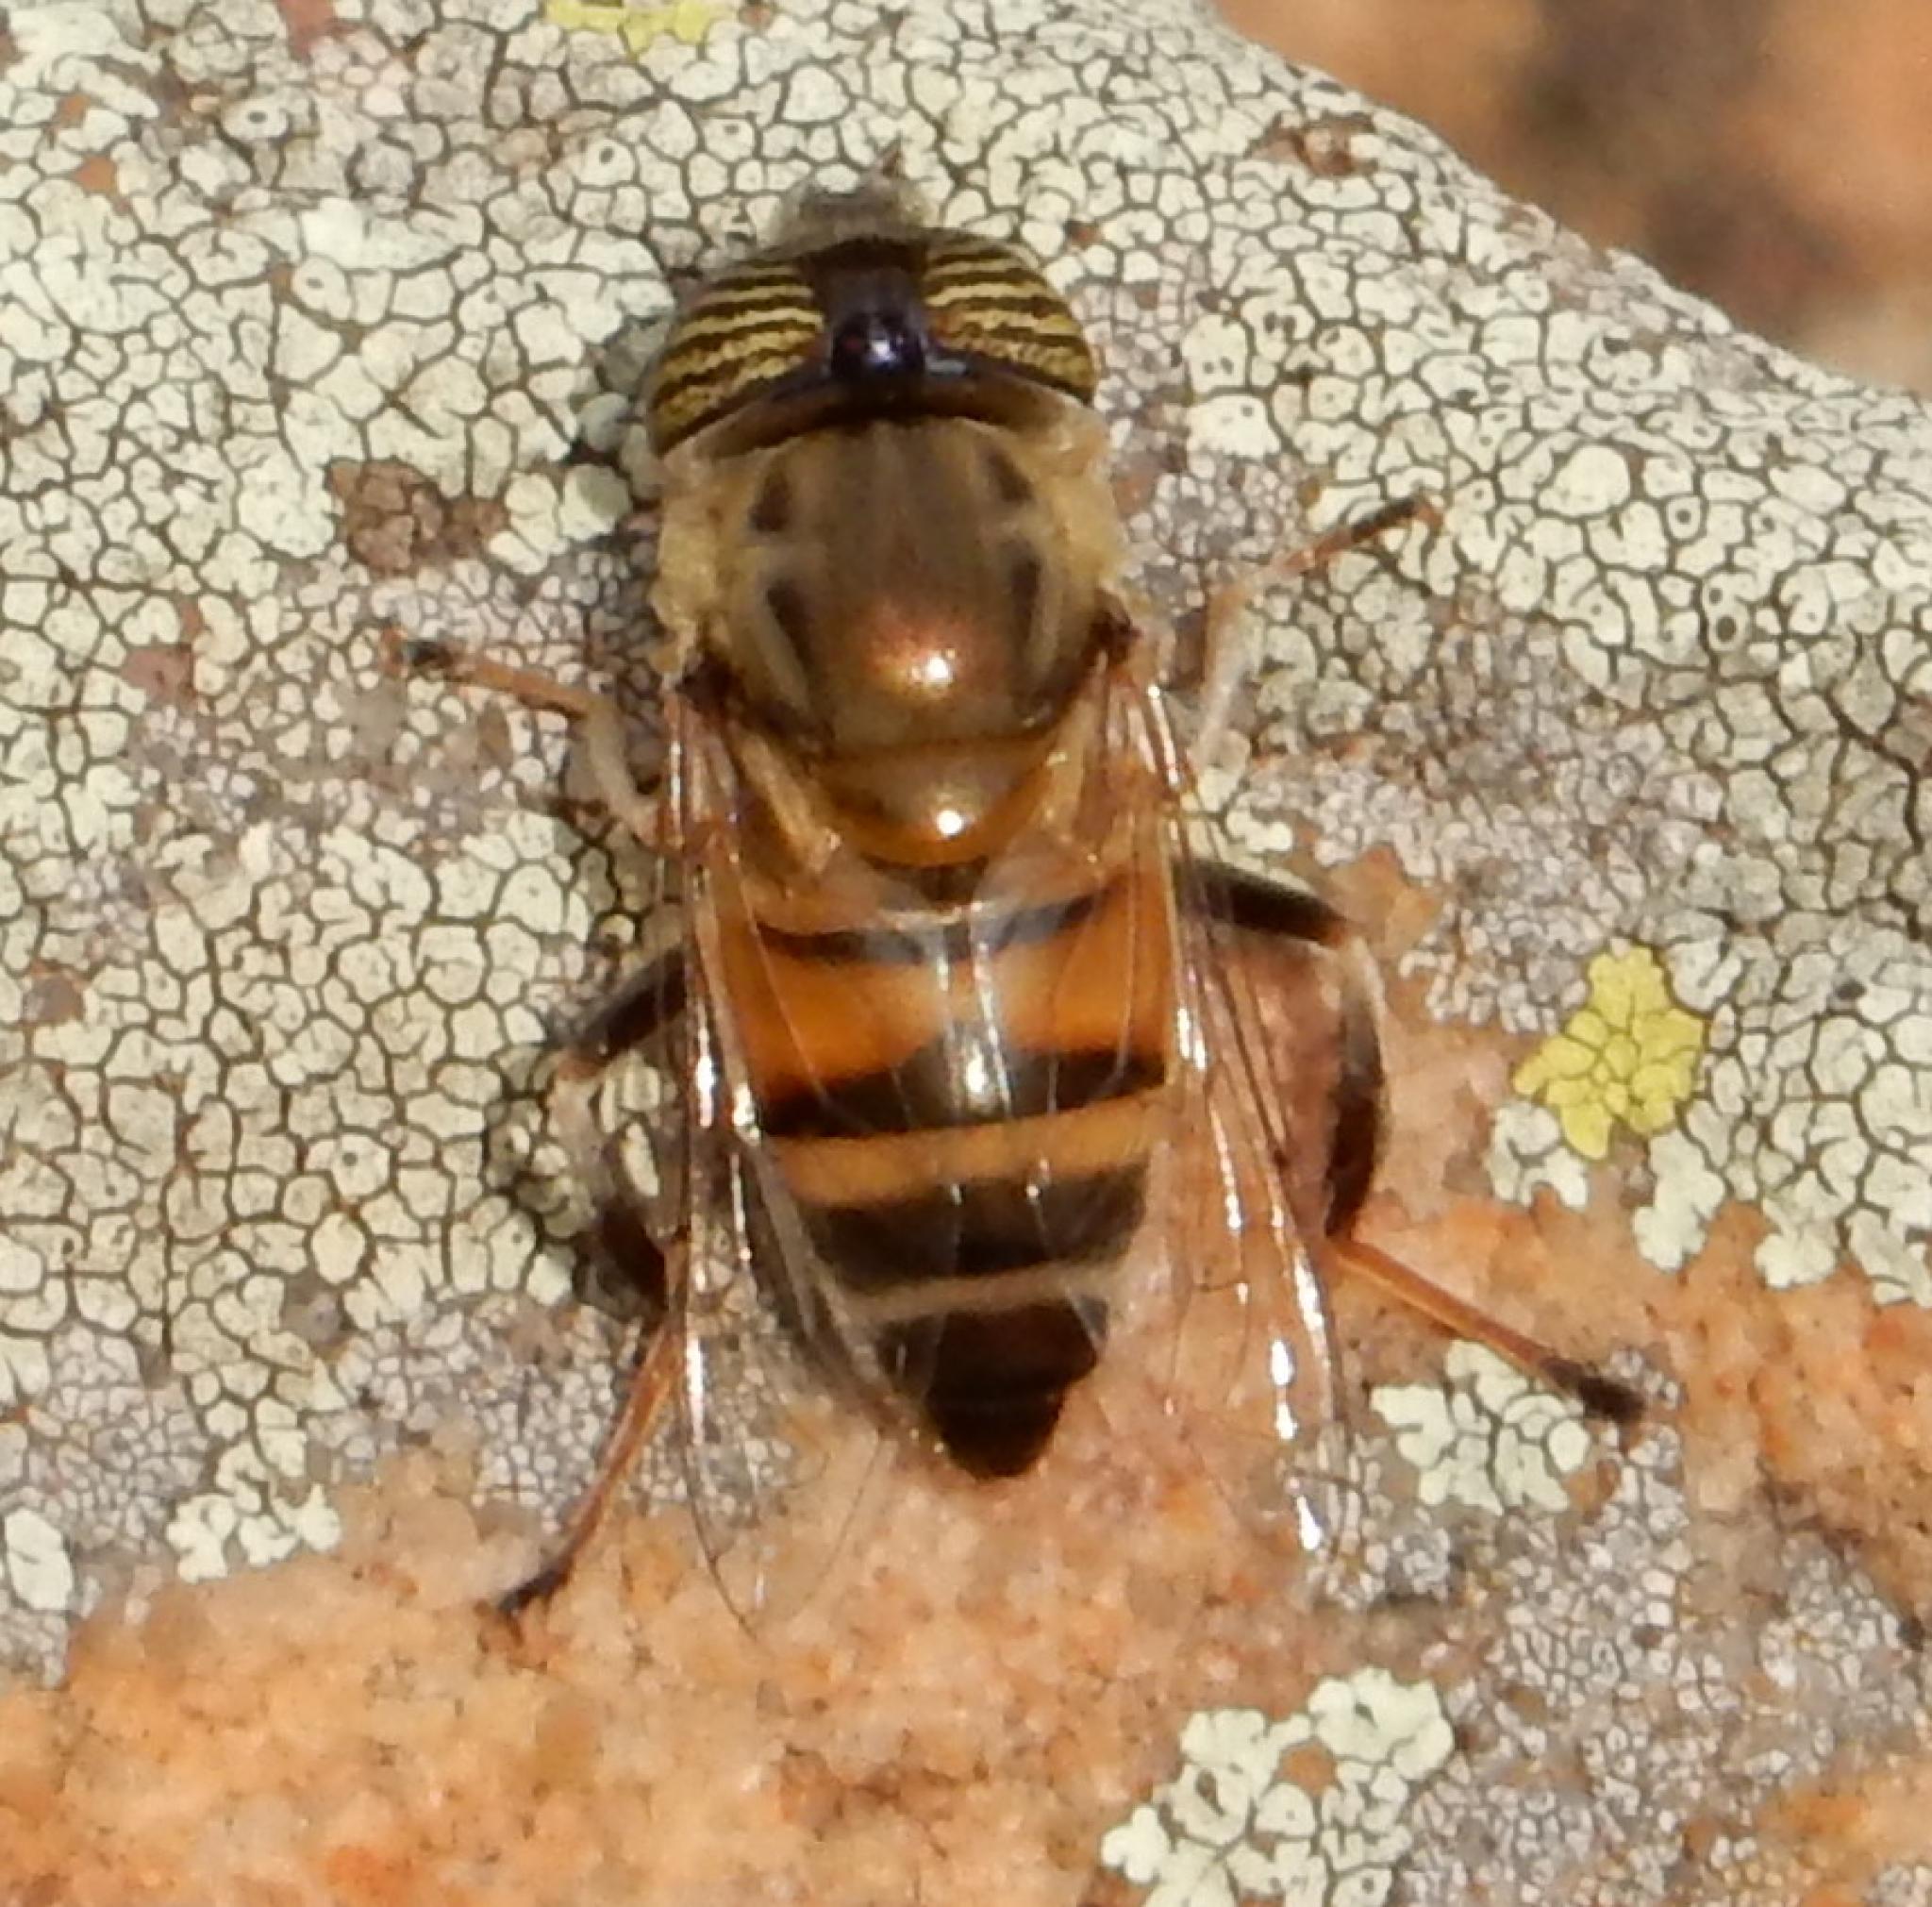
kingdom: Animalia
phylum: Arthropoda
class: Insecta
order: Diptera
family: Syrphidae
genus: Eristalinus
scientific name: Eristalinus taeniops
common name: Syrphid fly
